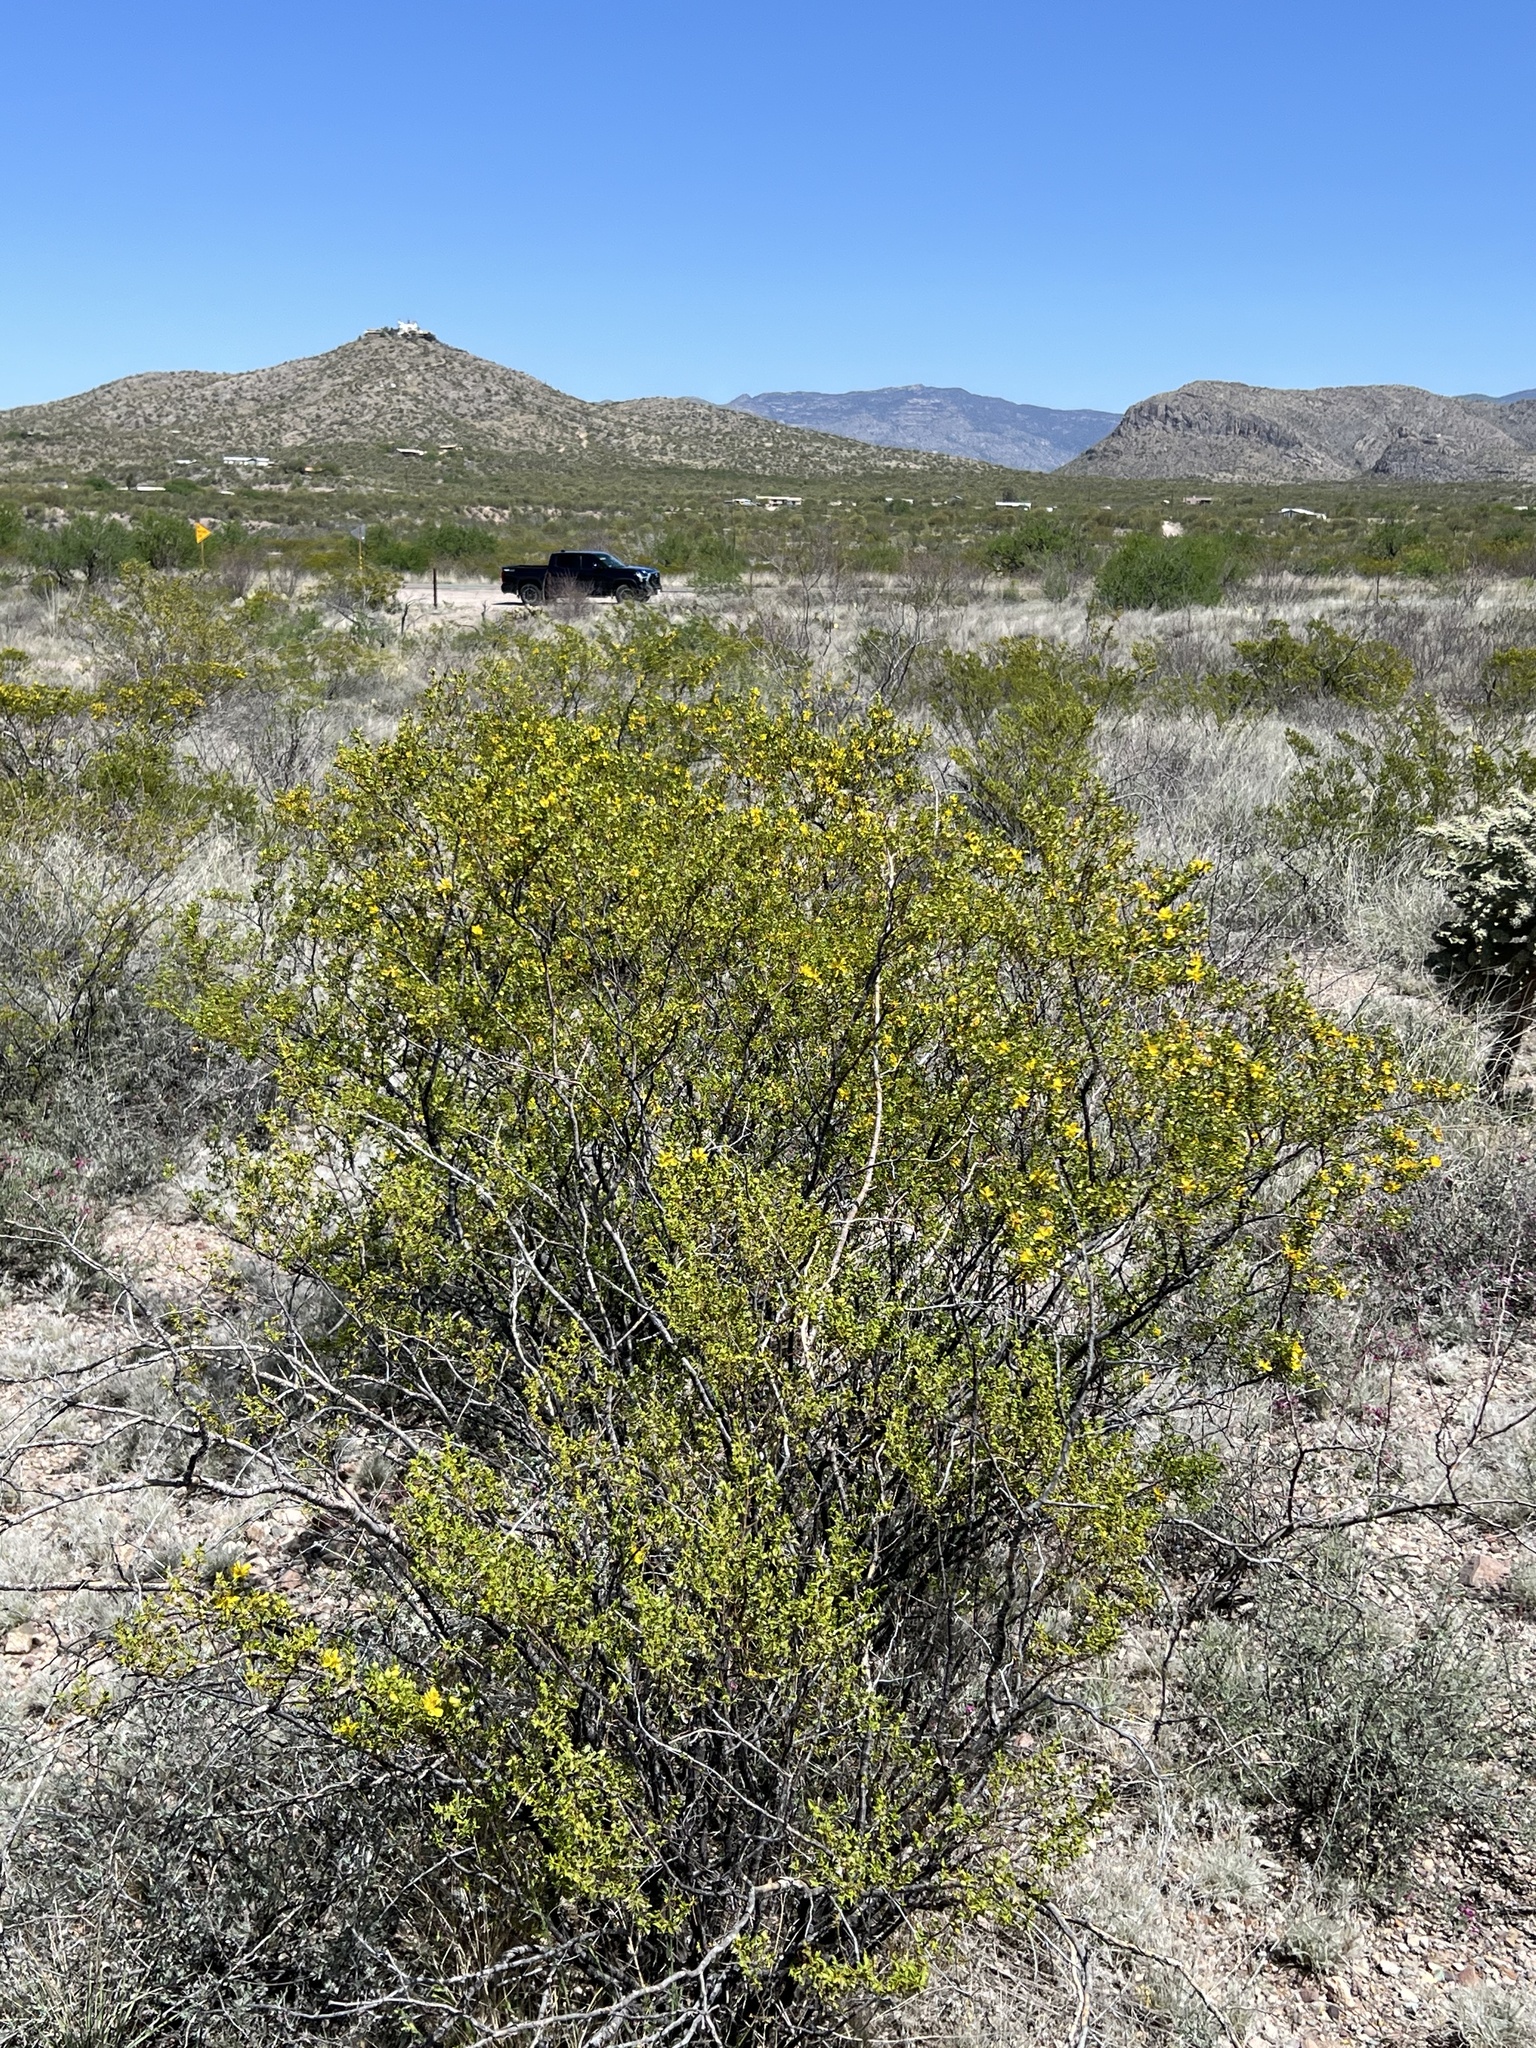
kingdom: Plantae
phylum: Tracheophyta
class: Magnoliopsida
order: Zygophyllales
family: Zygophyllaceae
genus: Larrea
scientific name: Larrea tridentata
